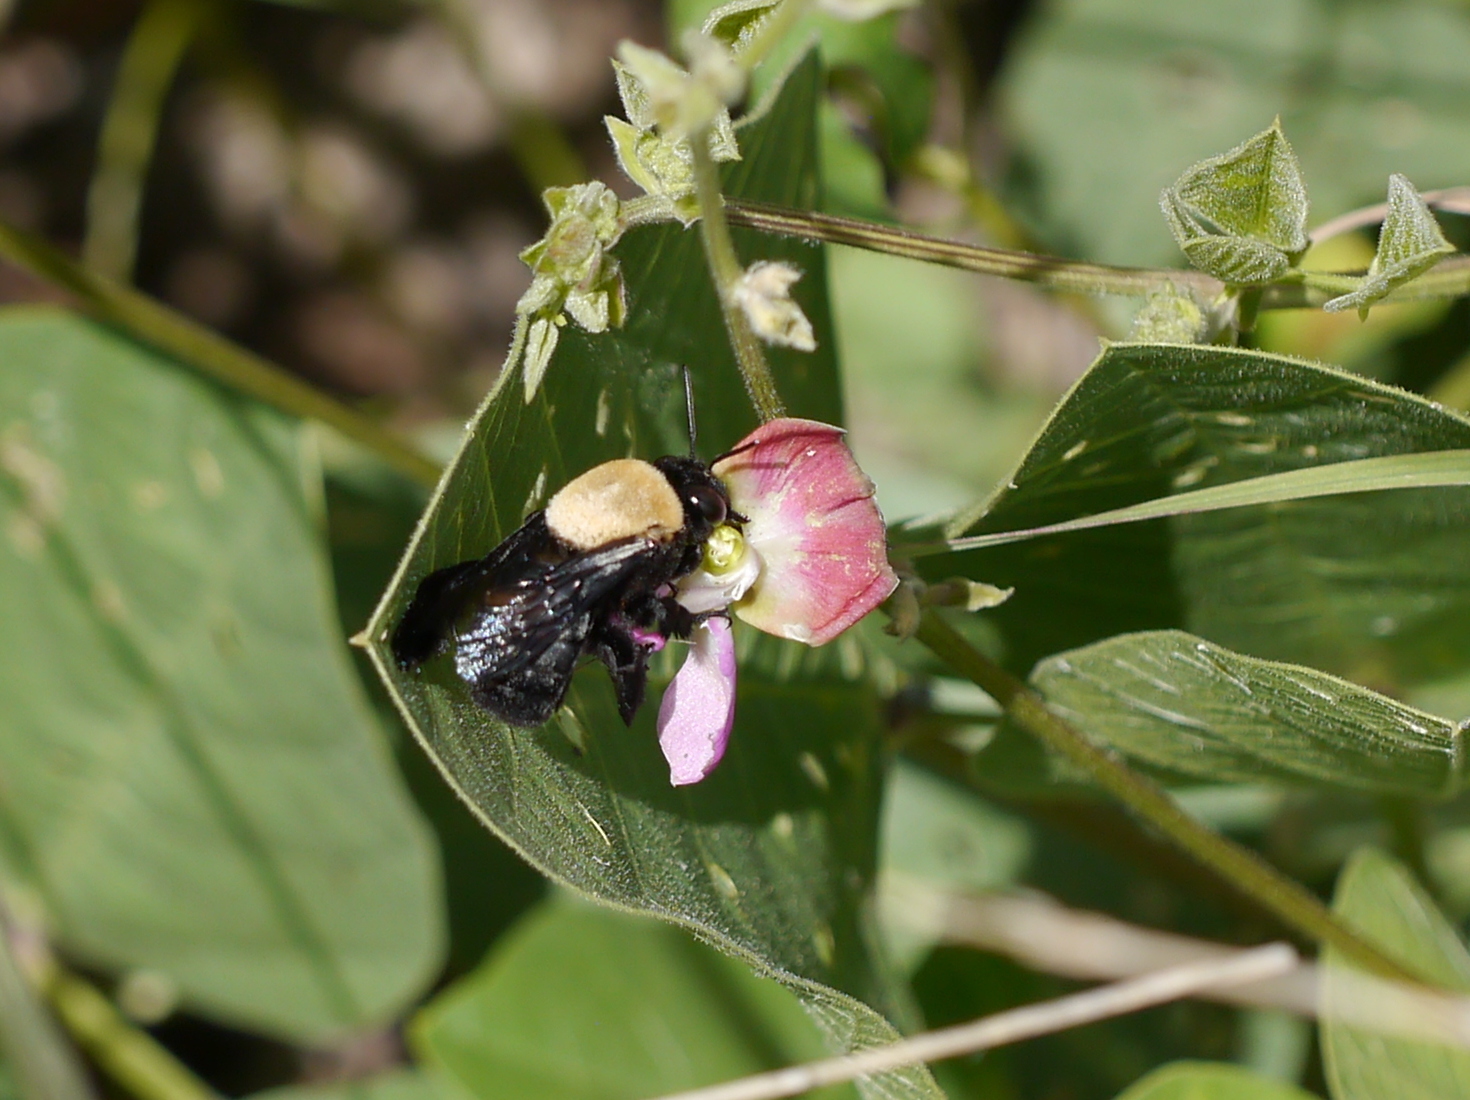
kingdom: Animalia
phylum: Arthropoda
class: Insecta
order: Hymenoptera
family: Apidae
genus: Centris
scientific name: Centris mexicana
